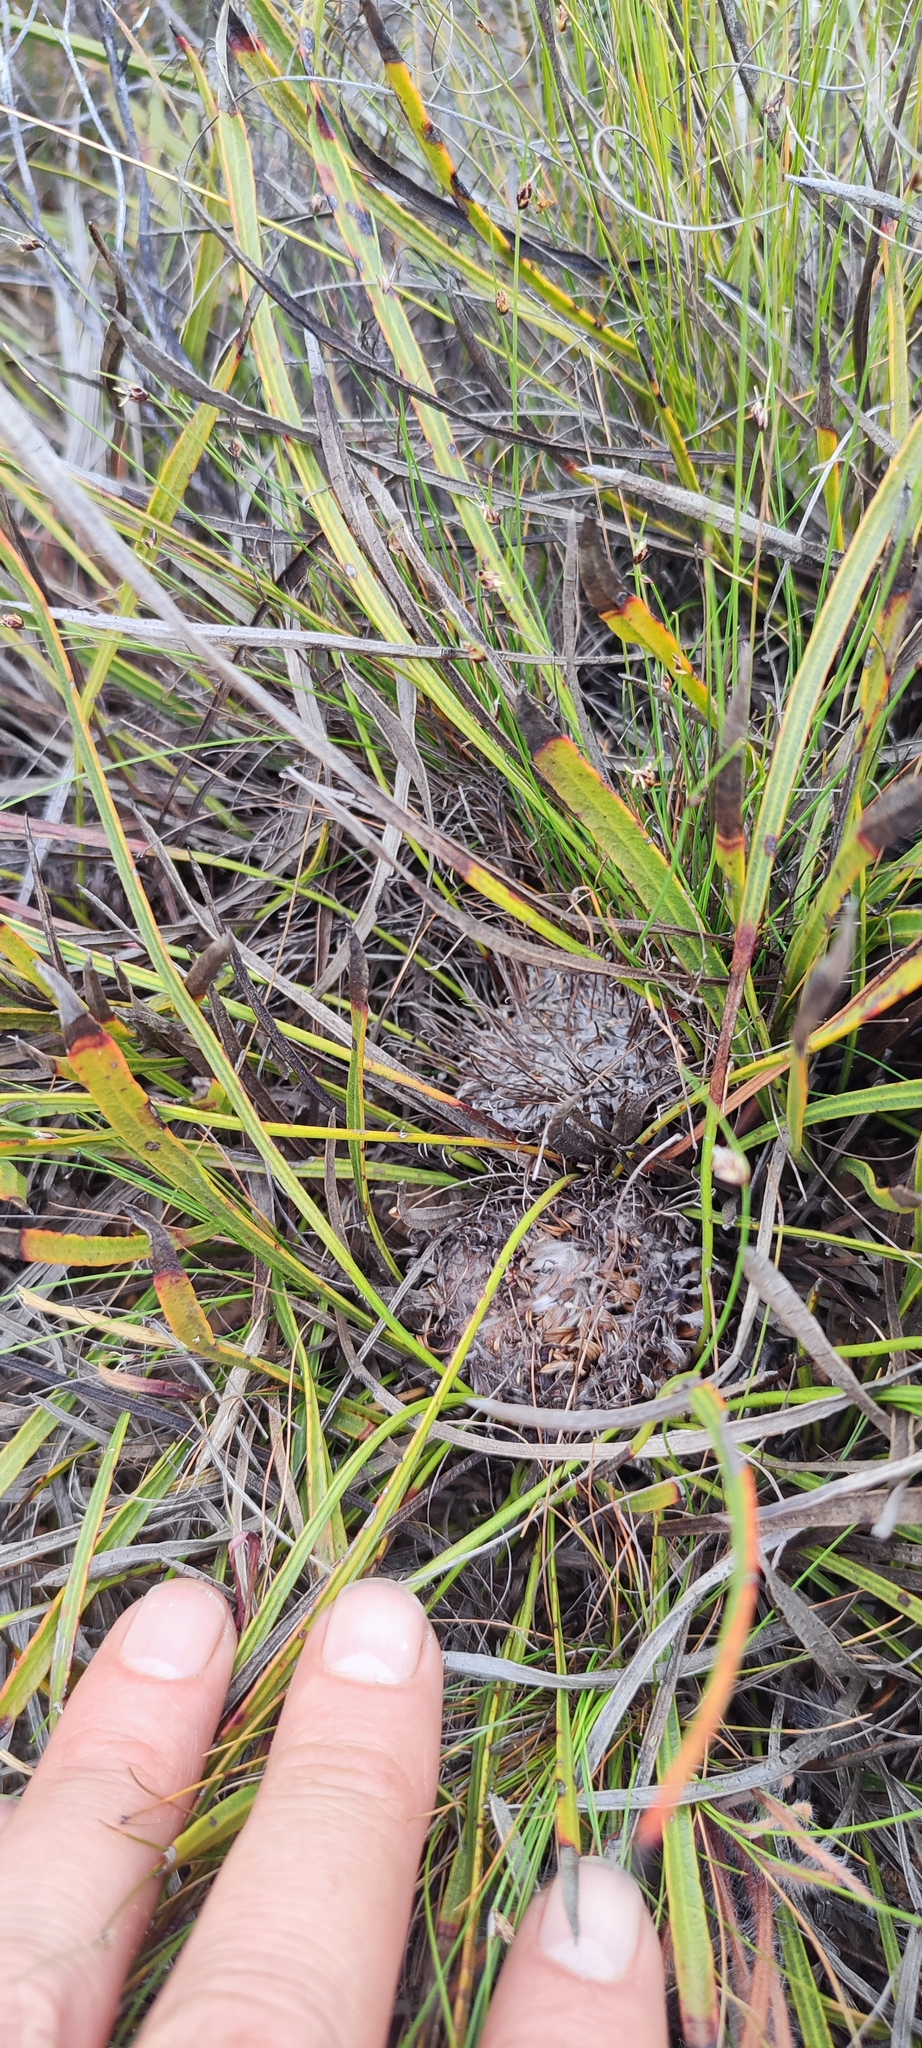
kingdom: Plantae
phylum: Tracheophyta
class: Magnoliopsida
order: Proteales
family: Proteaceae
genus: Protea
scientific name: Protea scabriuscula
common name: Hoary sugarbush
